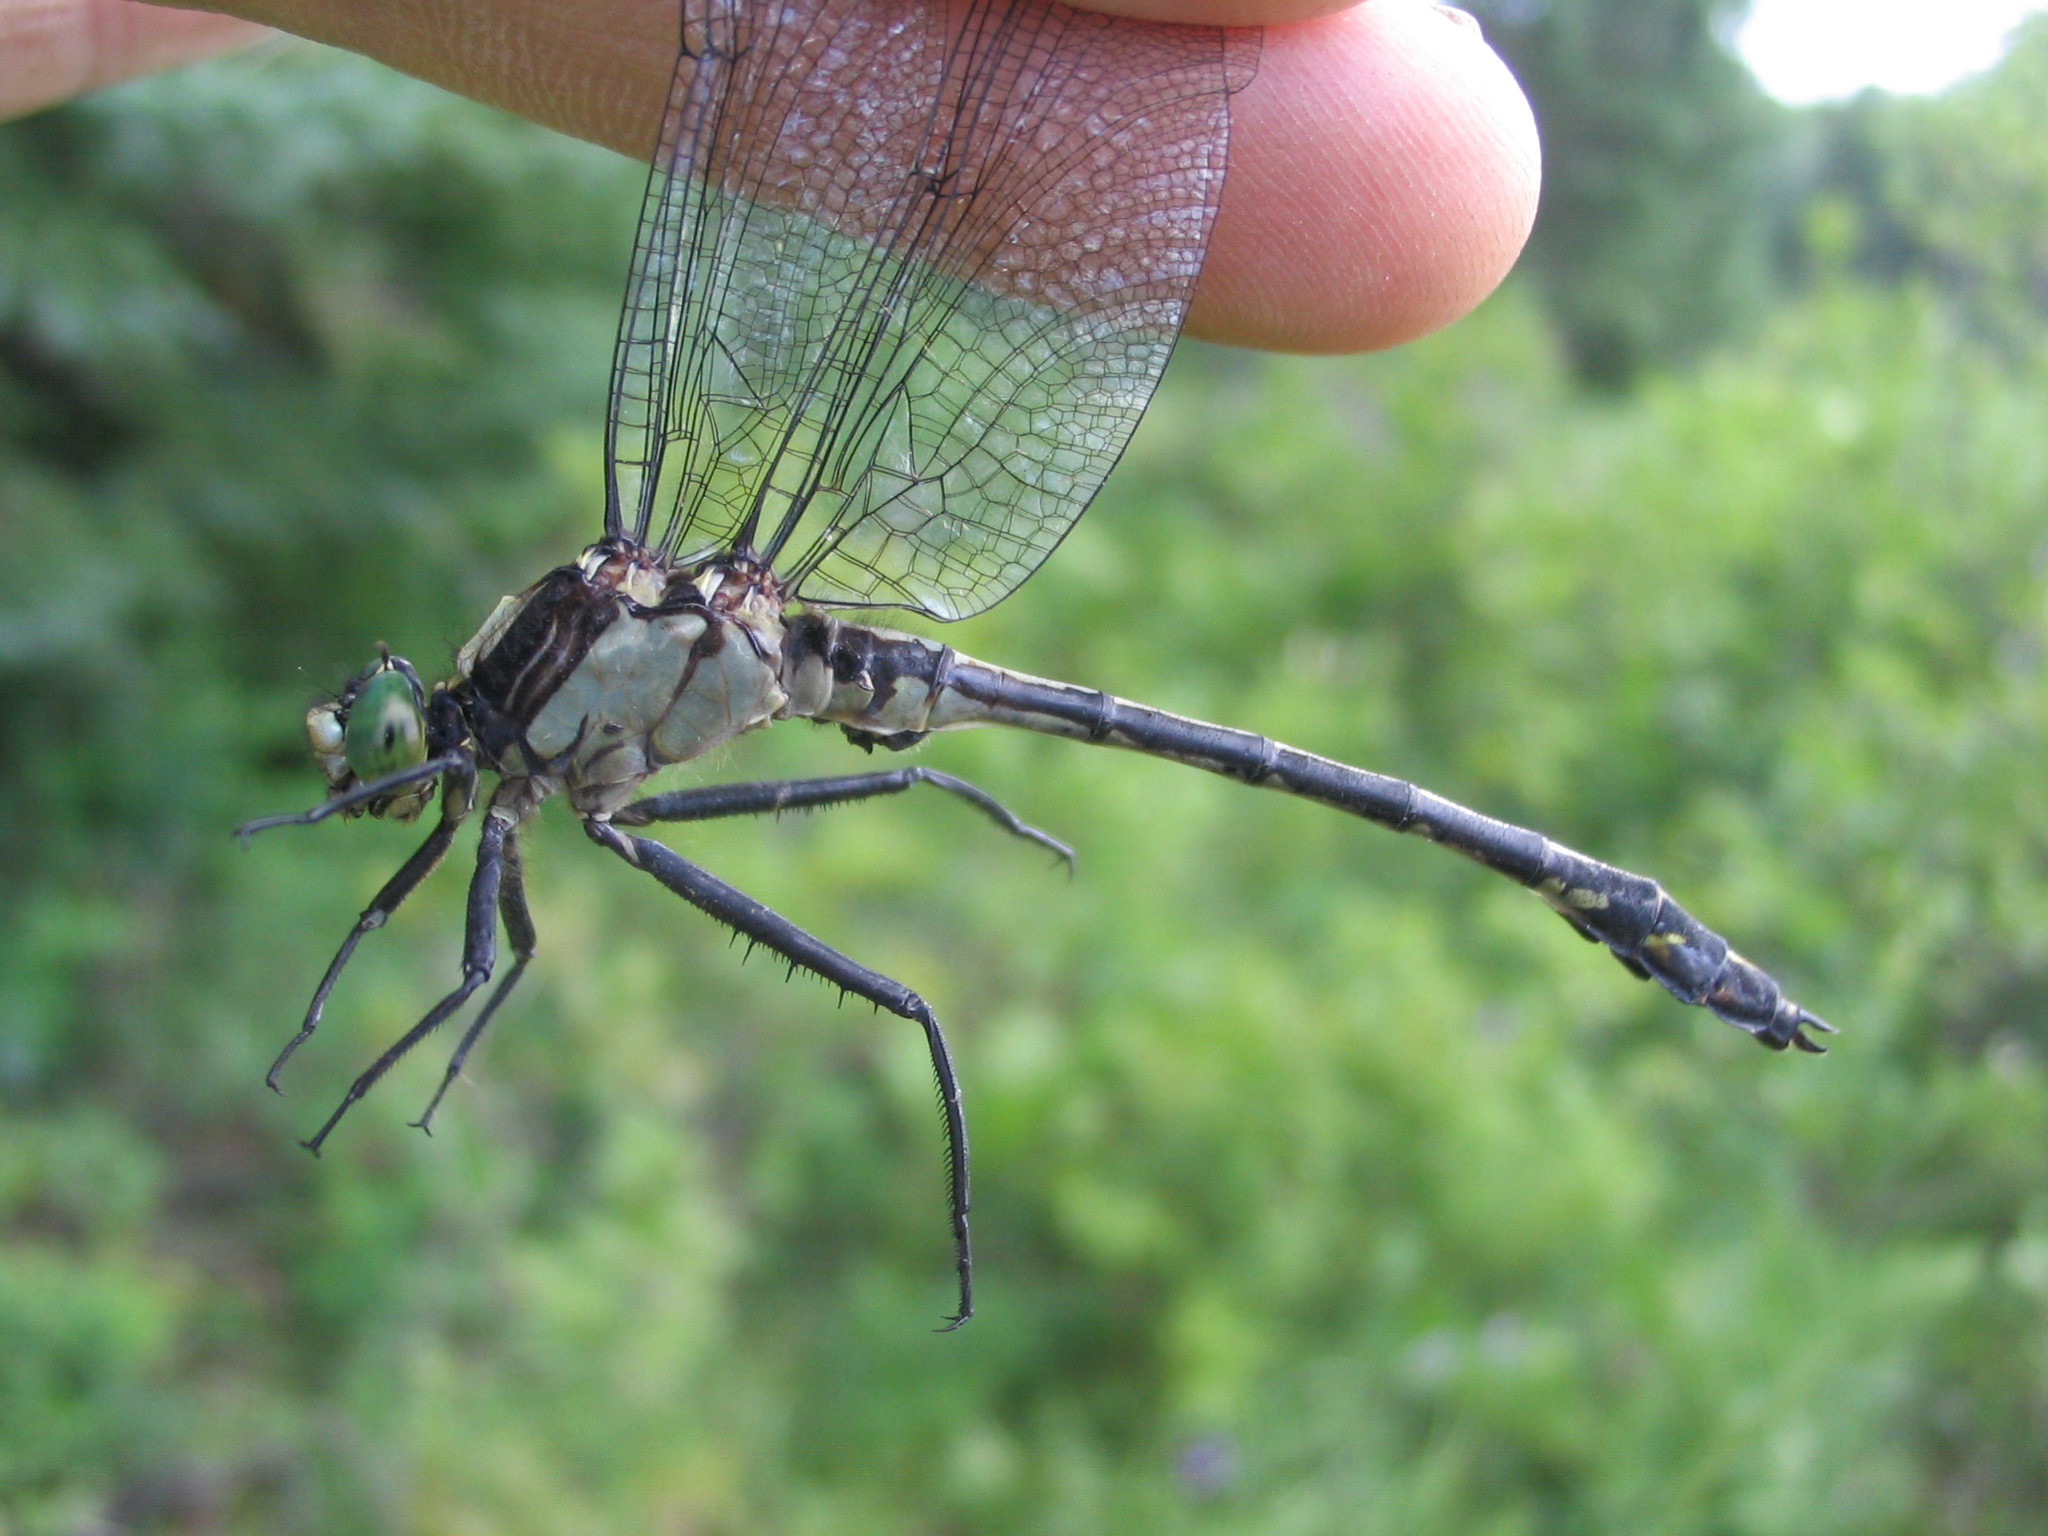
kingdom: Animalia
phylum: Arthropoda
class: Insecta
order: Odonata
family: Gomphidae
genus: Dromogomphus
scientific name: Dromogomphus spinosus
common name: Black-shouldered spinyleg
